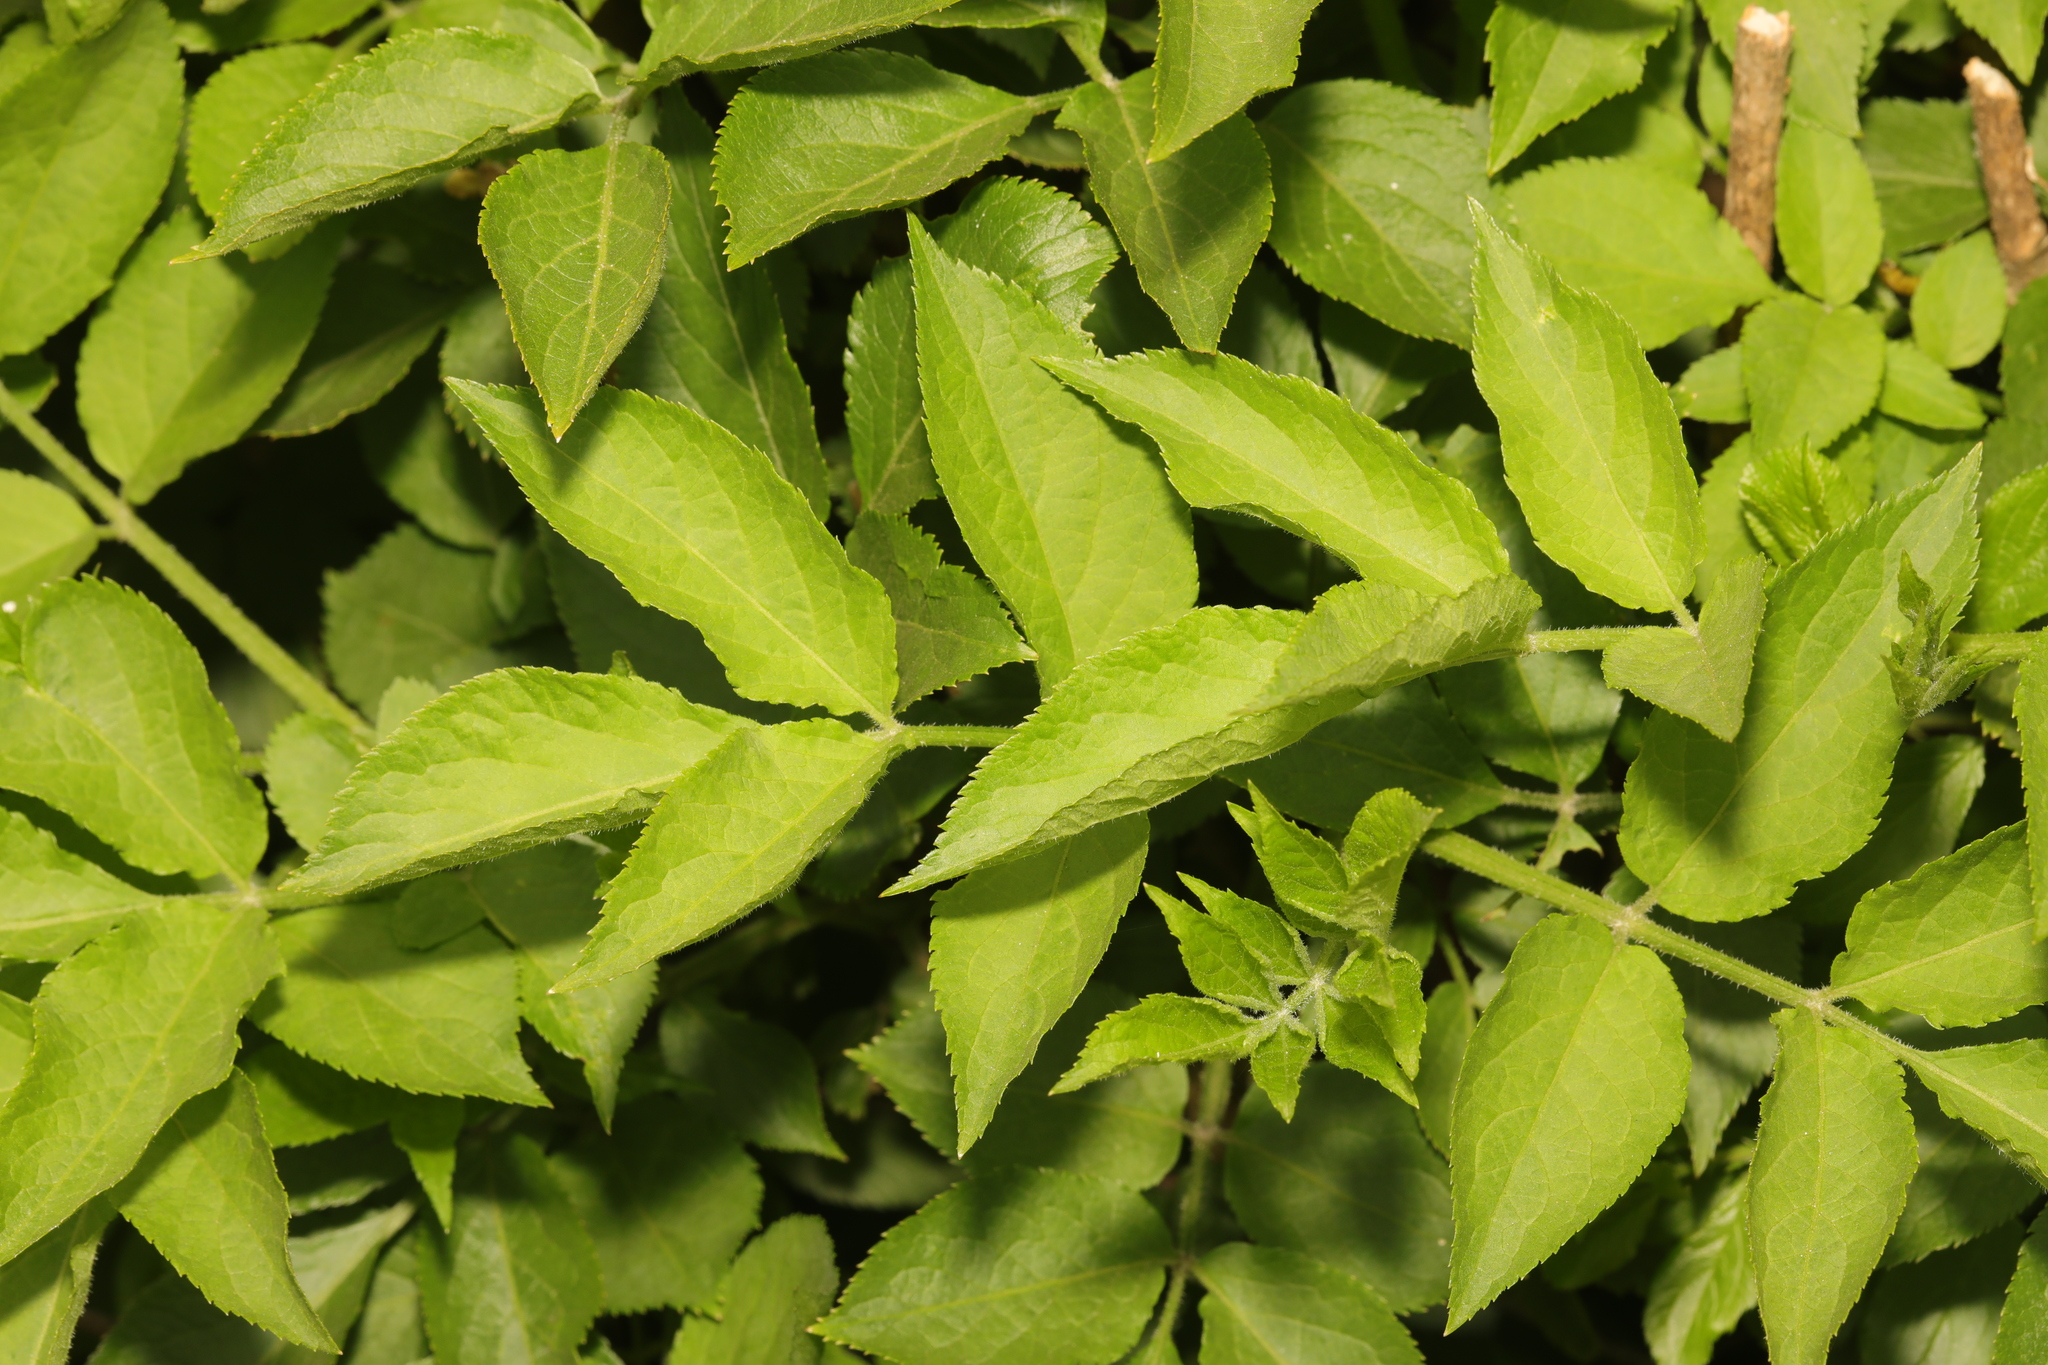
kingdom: Plantae
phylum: Tracheophyta
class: Magnoliopsida
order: Dipsacales
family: Viburnaceae
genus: Sambucus
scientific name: Sambucus nigra
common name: Elder
